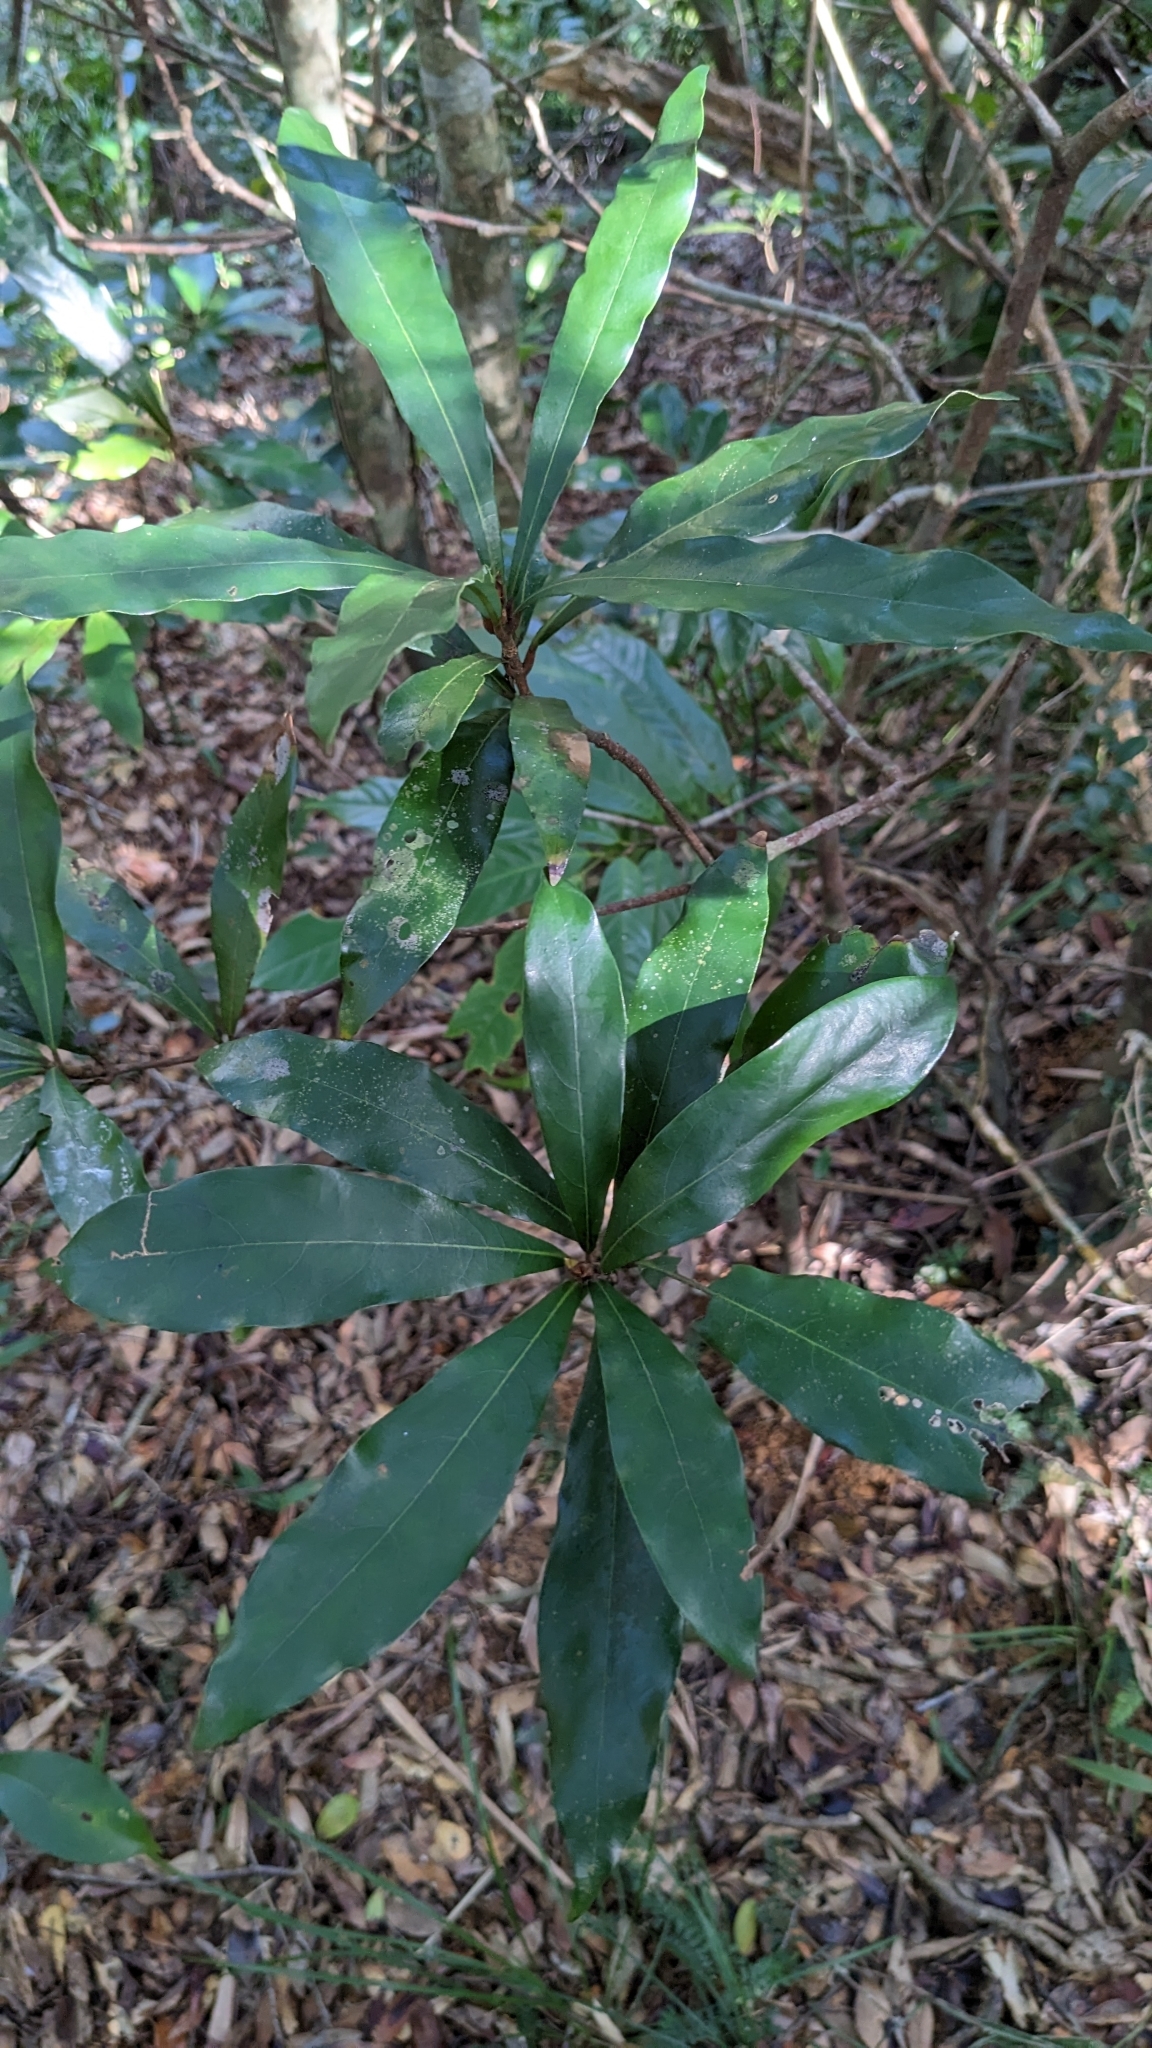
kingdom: Plantae
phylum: Tracheophyta
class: Magnoliopsida
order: Laurales
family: Lauraceae
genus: Litsea
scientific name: Litsea acutivena
